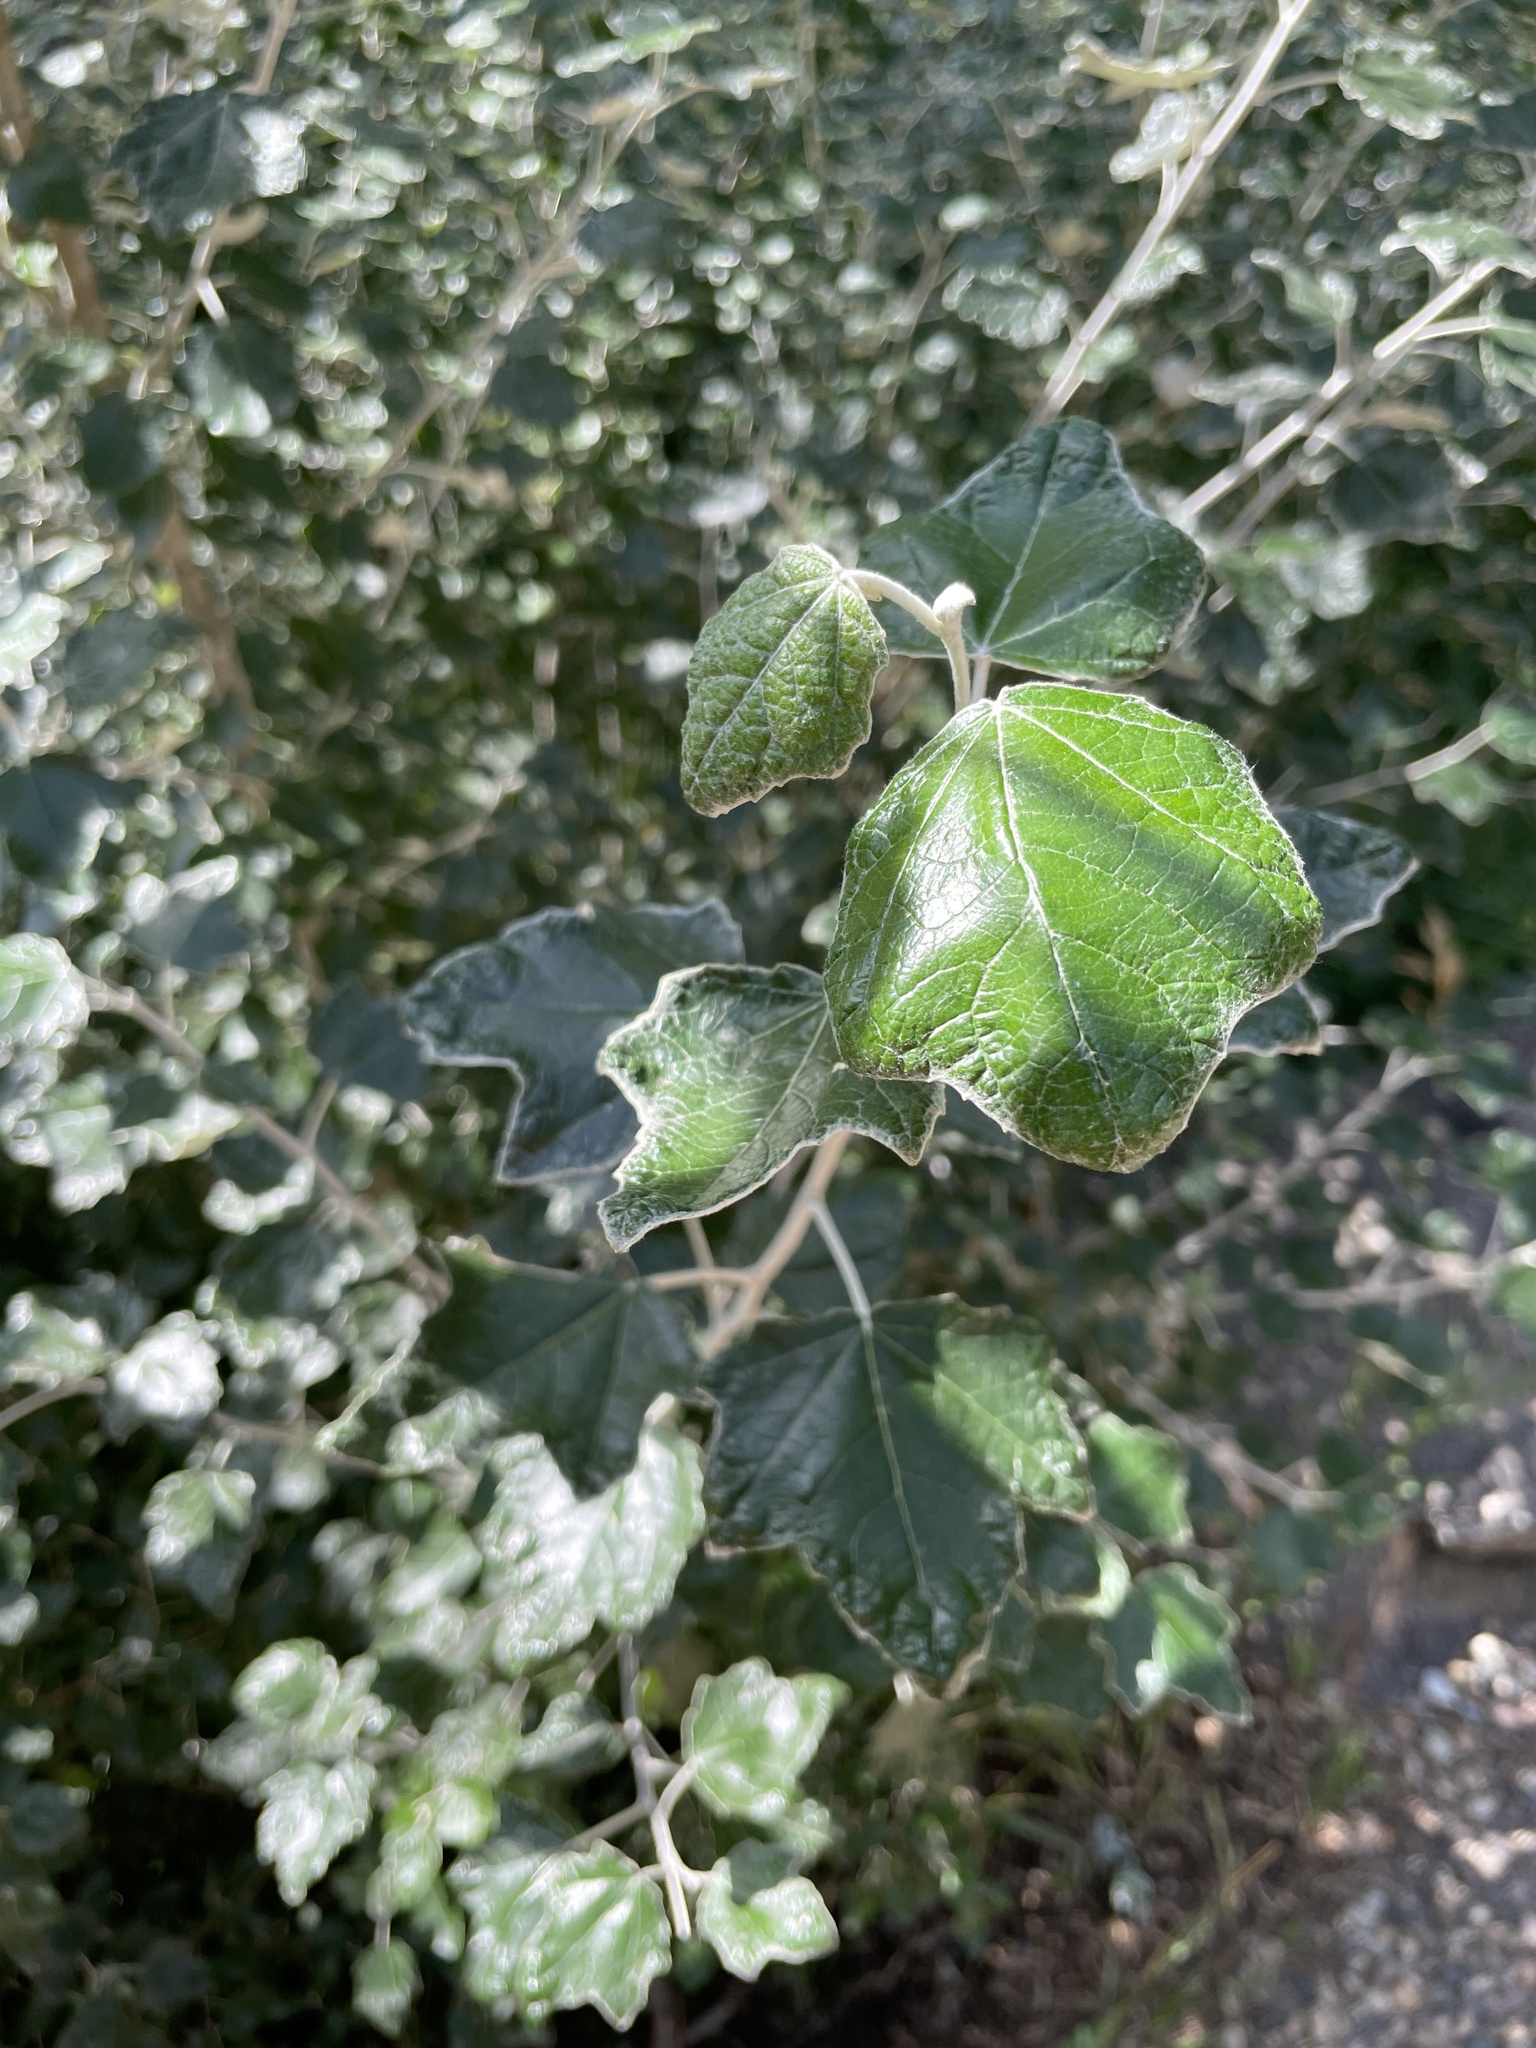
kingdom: Plantae
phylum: Tracheophyta
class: Magnoliopsida
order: Malpighiales
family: Salicaceae
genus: Populus
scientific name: Populus alba
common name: White poplar
